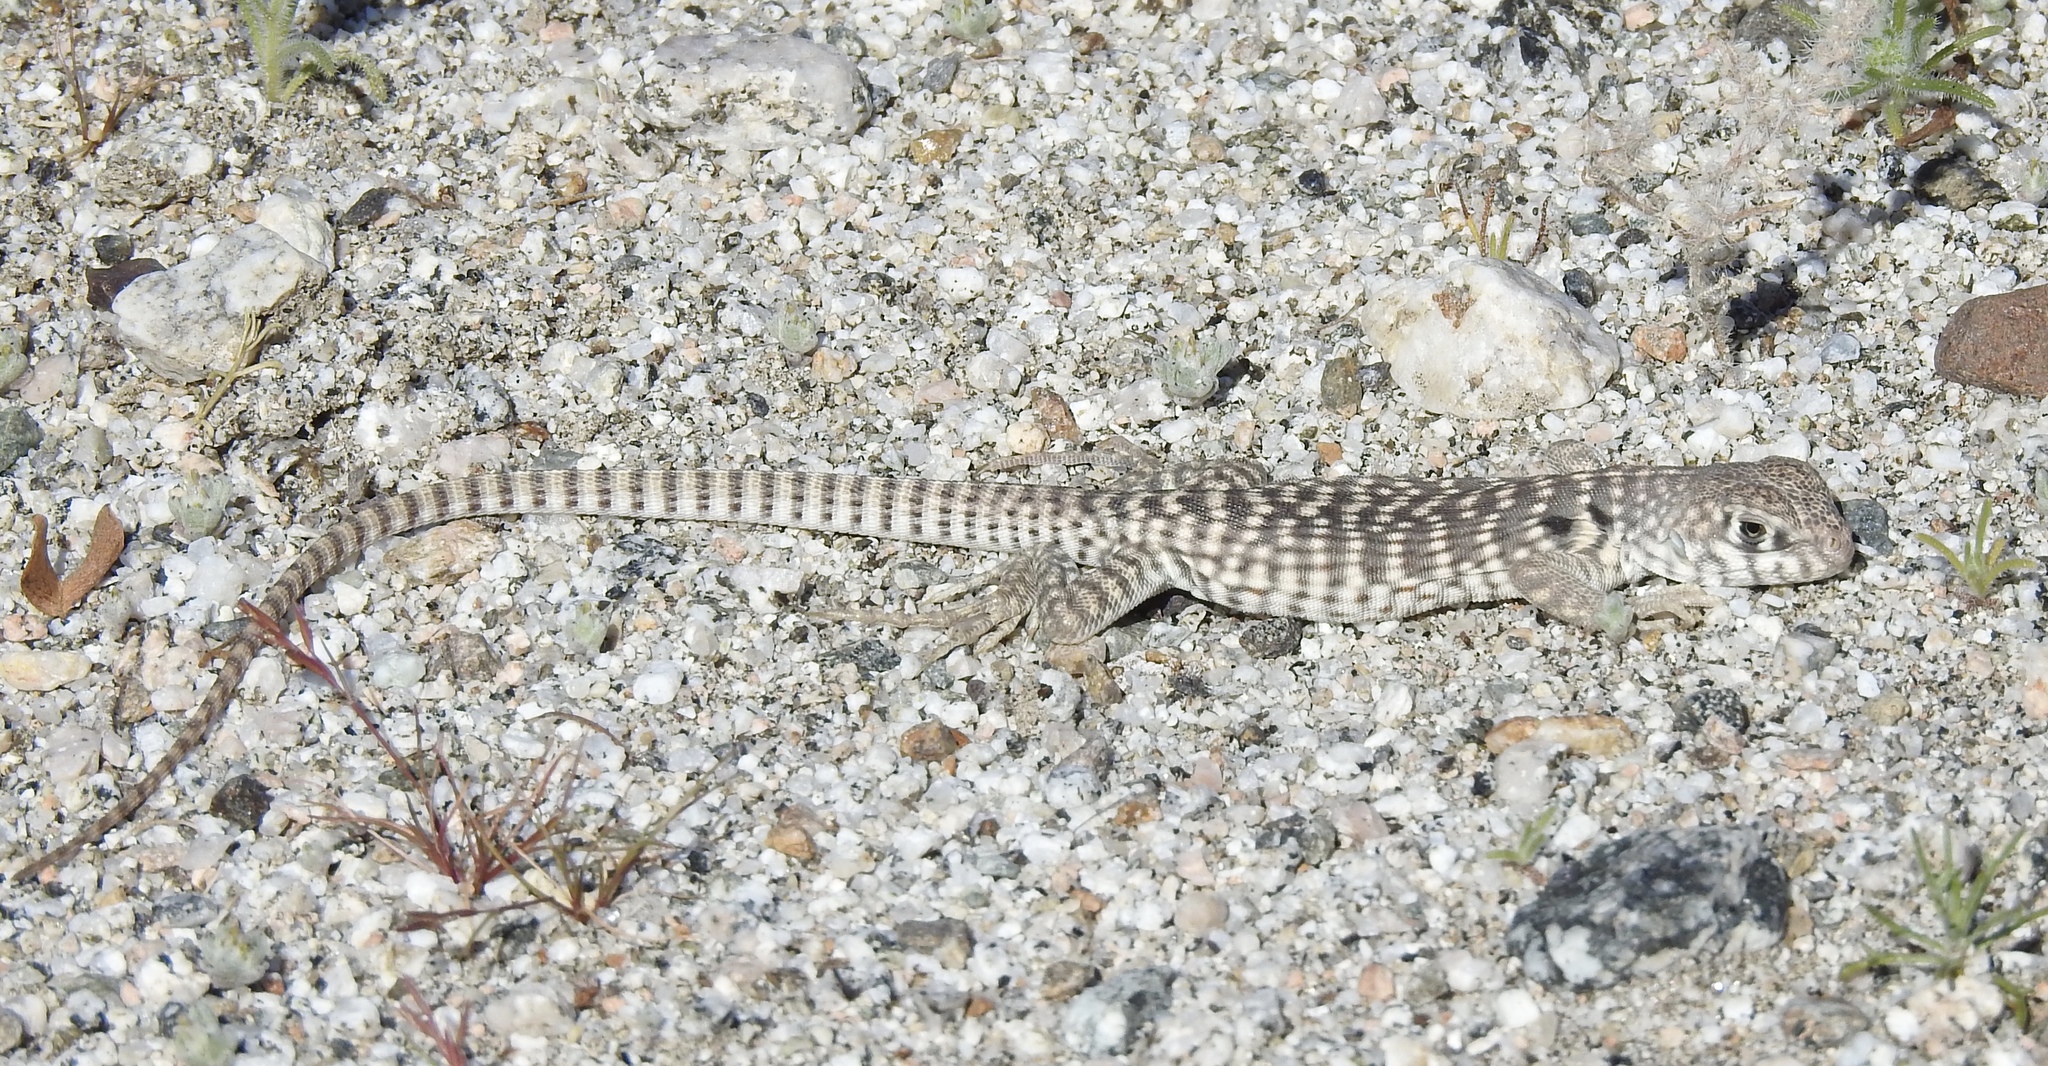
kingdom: Animalia
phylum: Chordata
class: Squamata
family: Iguanidae
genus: Dipsosaurus
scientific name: Dipsosaurus dorsalis
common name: Desert iguana
